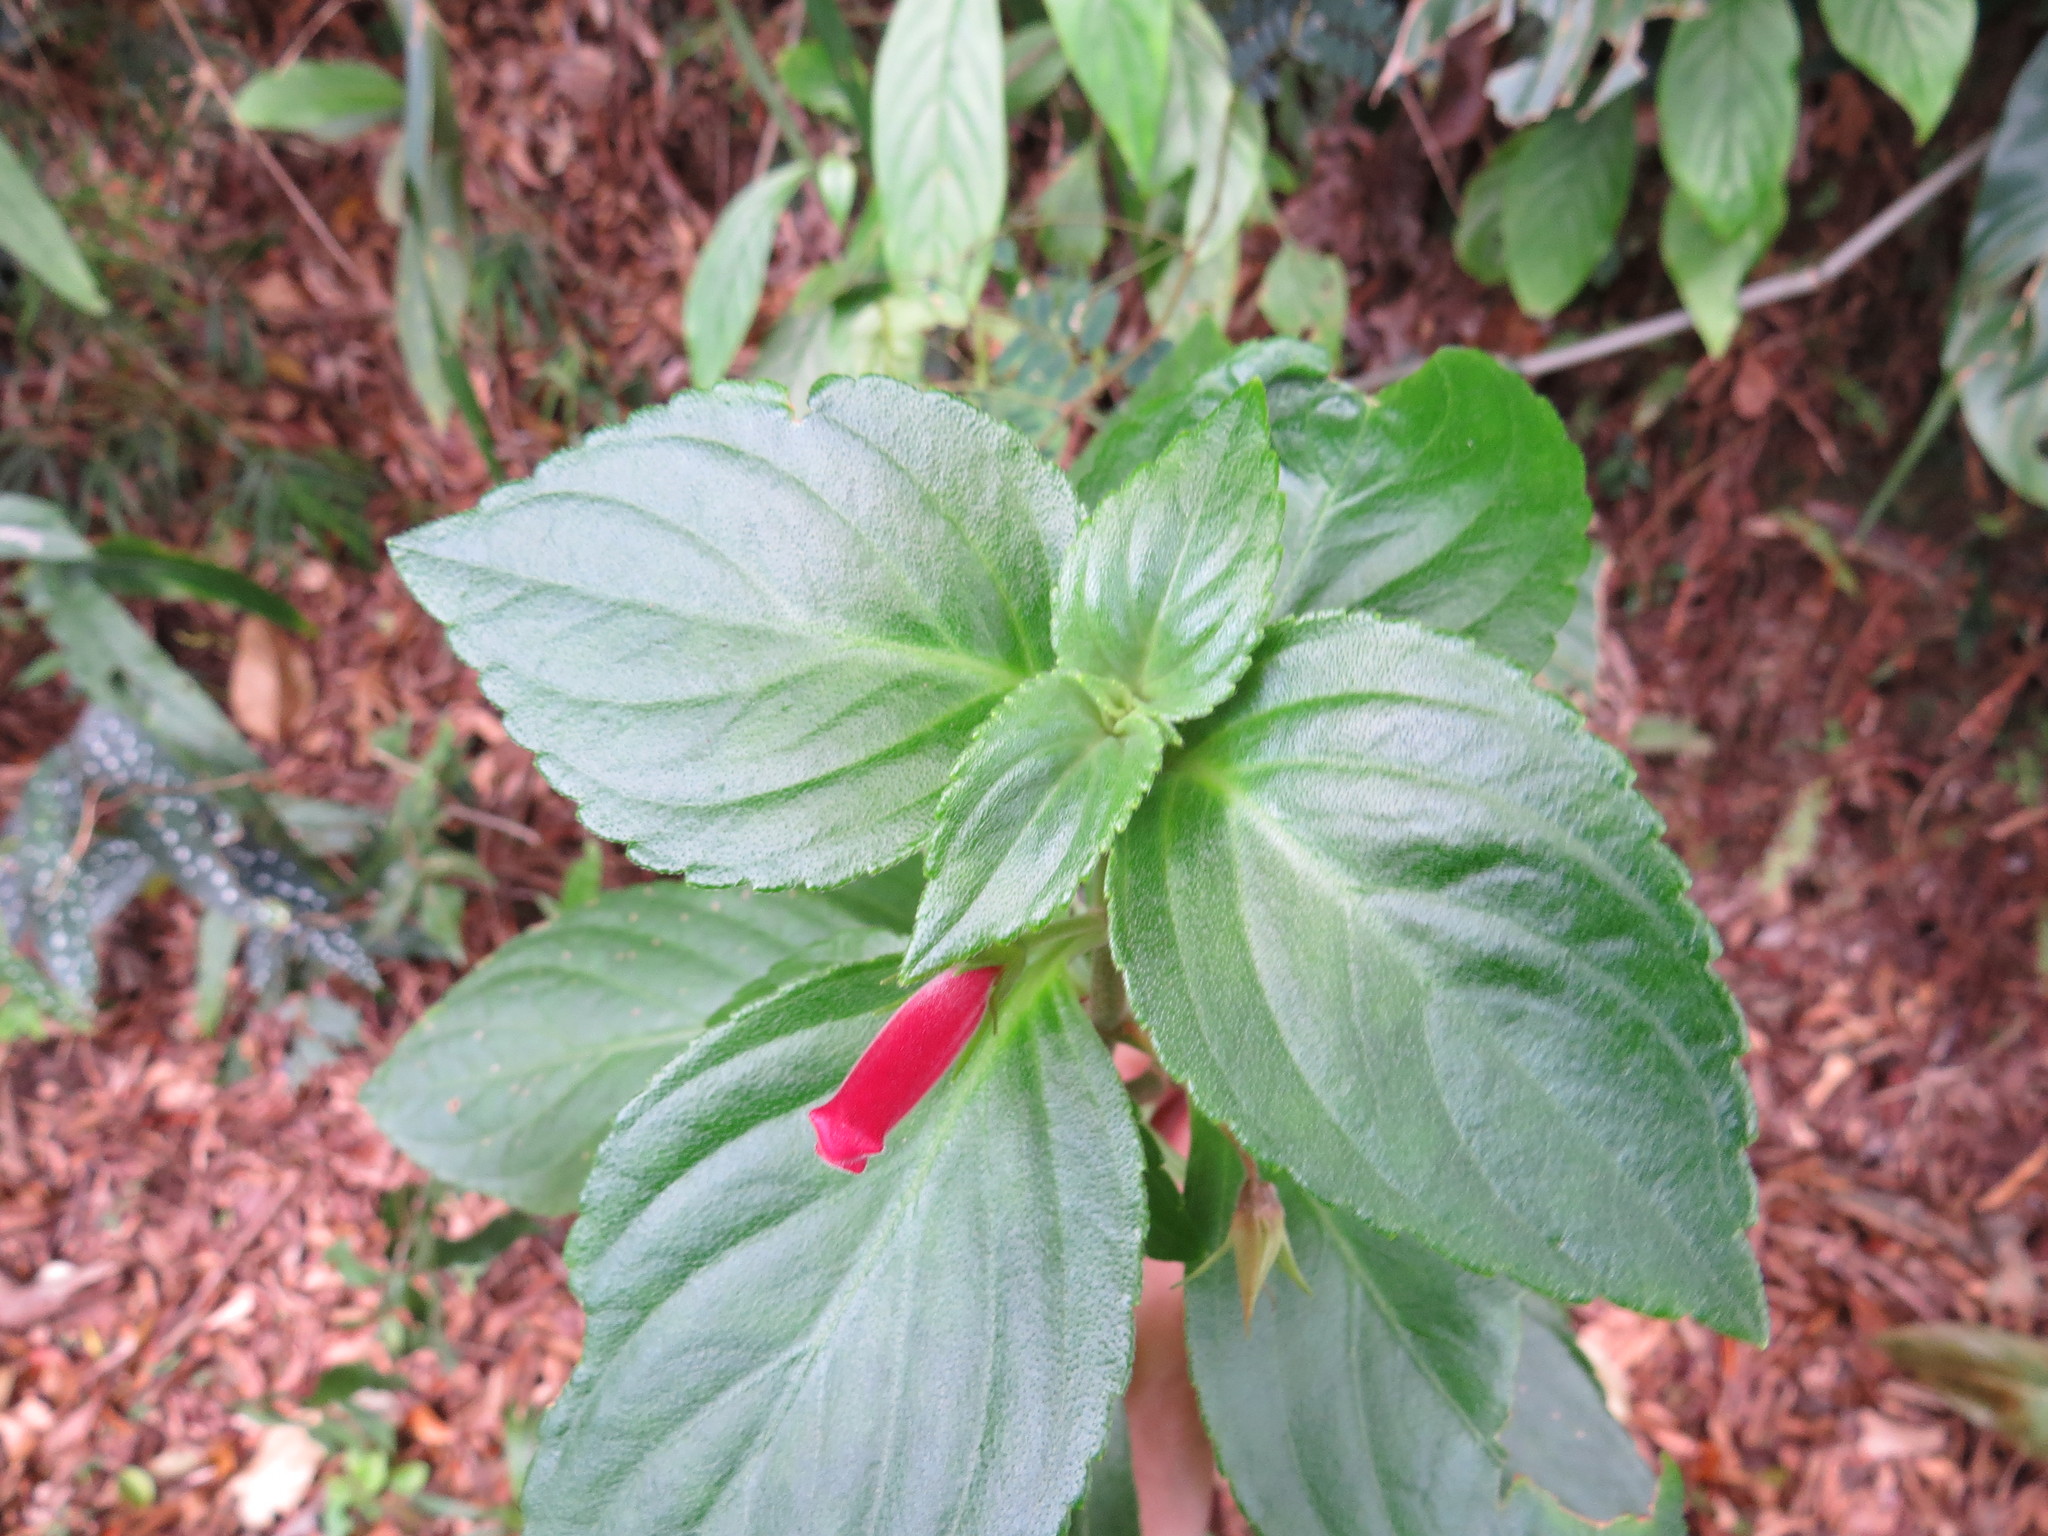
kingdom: Plantae
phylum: Tracheophyta
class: Magnoliopsida
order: Lamiales
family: Gesneriaceae
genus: Vanhouttea
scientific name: Vanhouttea gardneri
